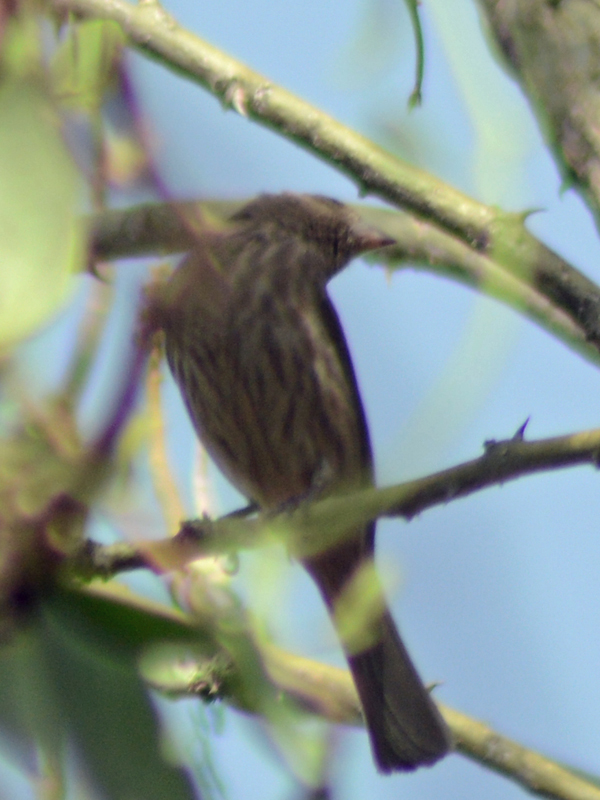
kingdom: Animalia
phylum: Chordata
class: Aves
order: Passeriformes
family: Fringillidae
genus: Haemorhous
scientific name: Haemorhous mexicanus
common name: House finch
